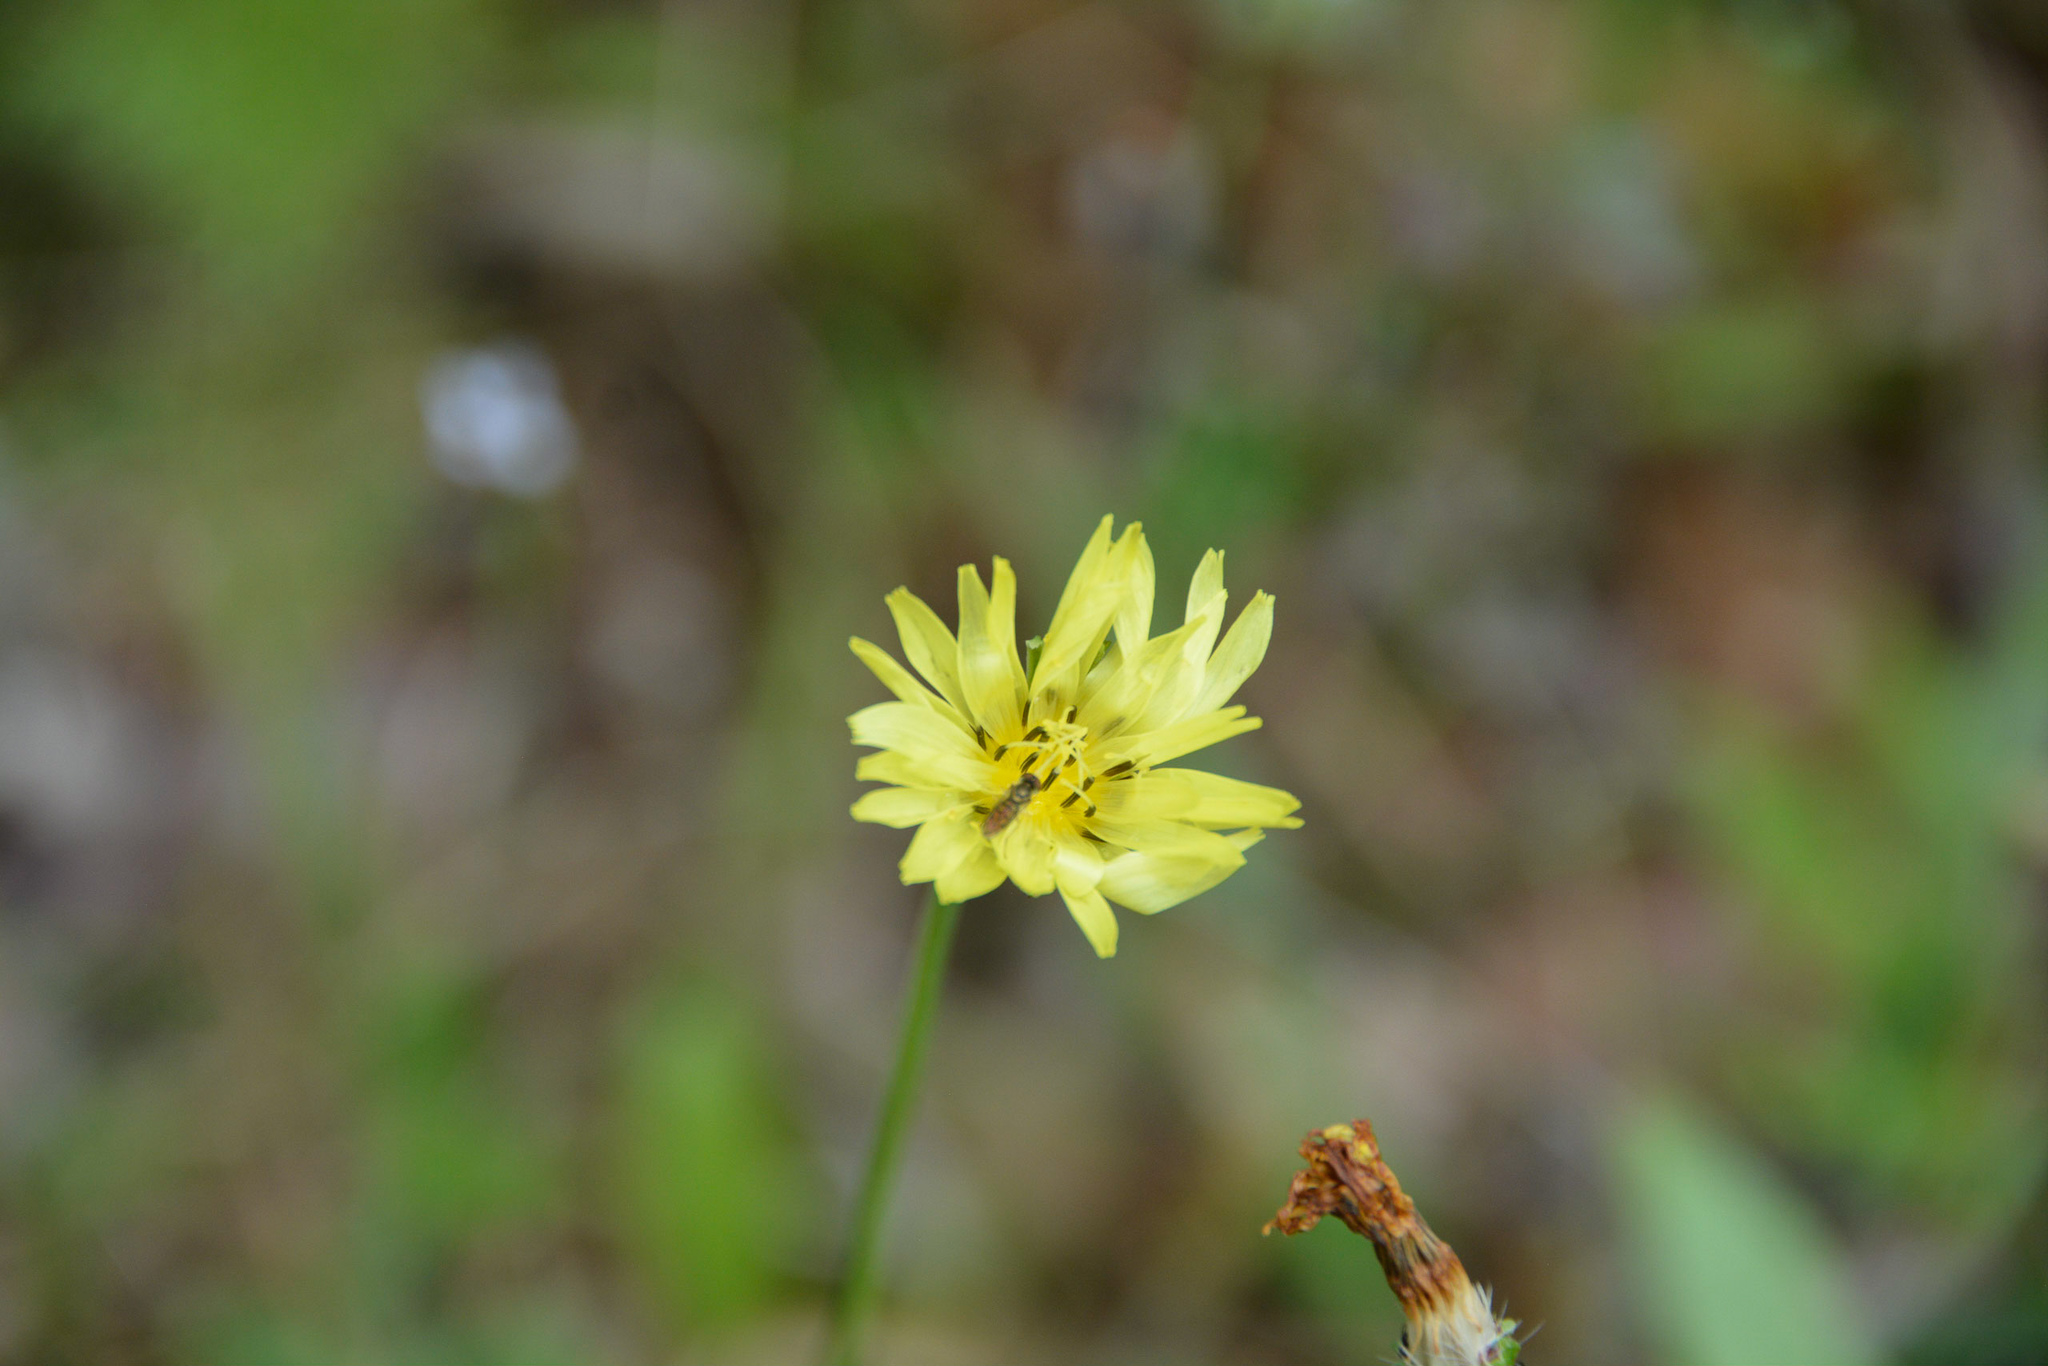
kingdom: Plantae
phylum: Tracheophyta
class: Magnoliopsida
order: Asterales
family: Asteraceae
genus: Pyrrhopappus
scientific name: Pyrrhopappus carolinianus
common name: Carolina desert-chicory
